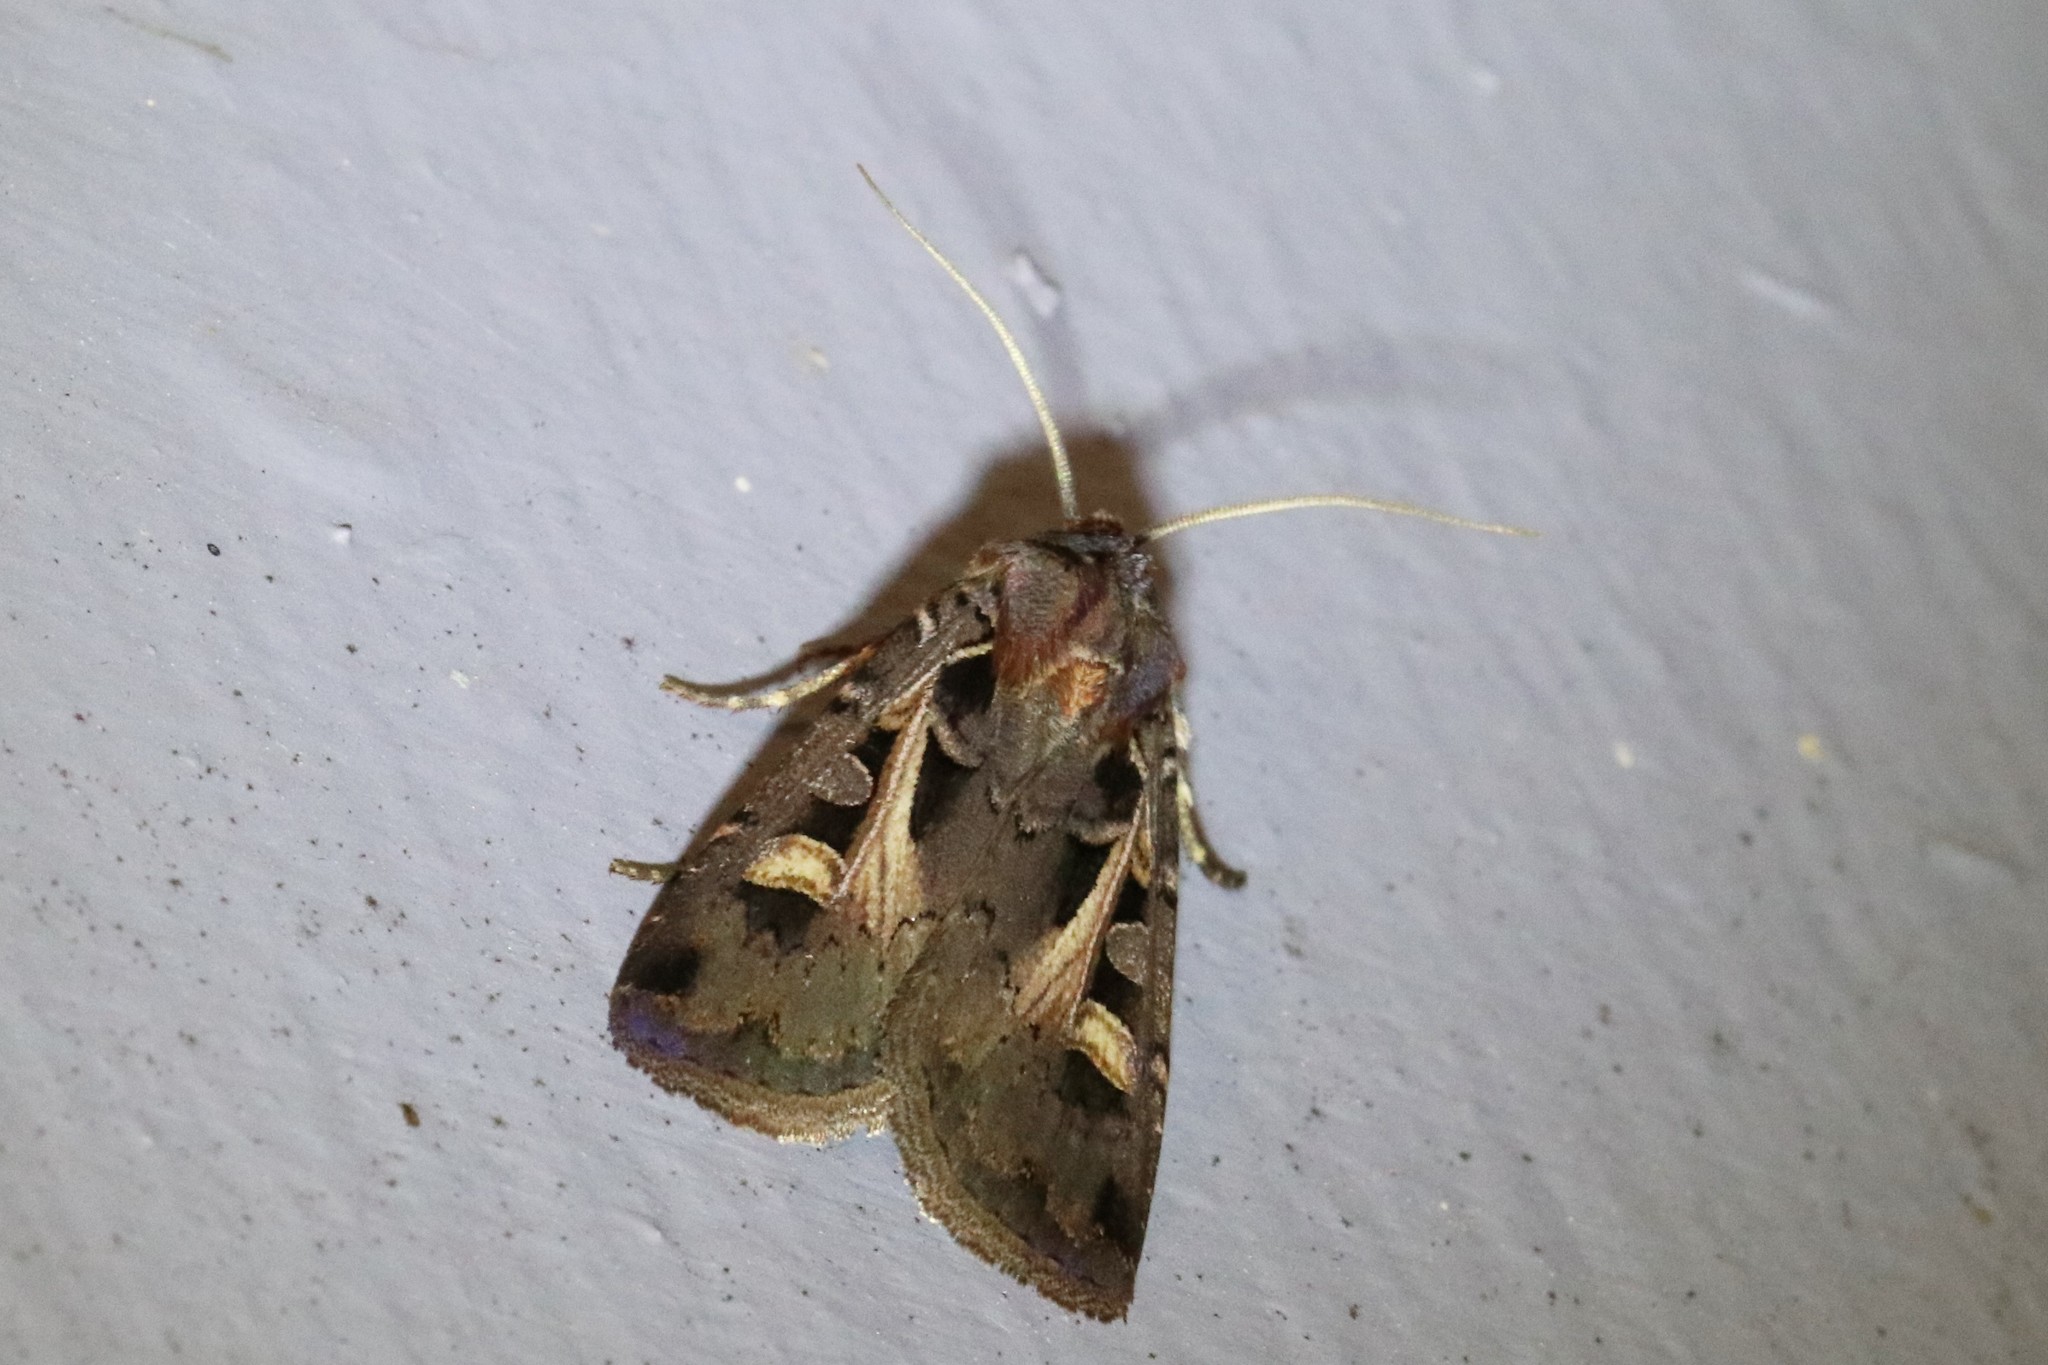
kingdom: Animalia
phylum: Arthropoda
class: Insecta
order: Lepidoptera
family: Noctuidae
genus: Feltia
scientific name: Feltia herilis
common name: Master's dart
